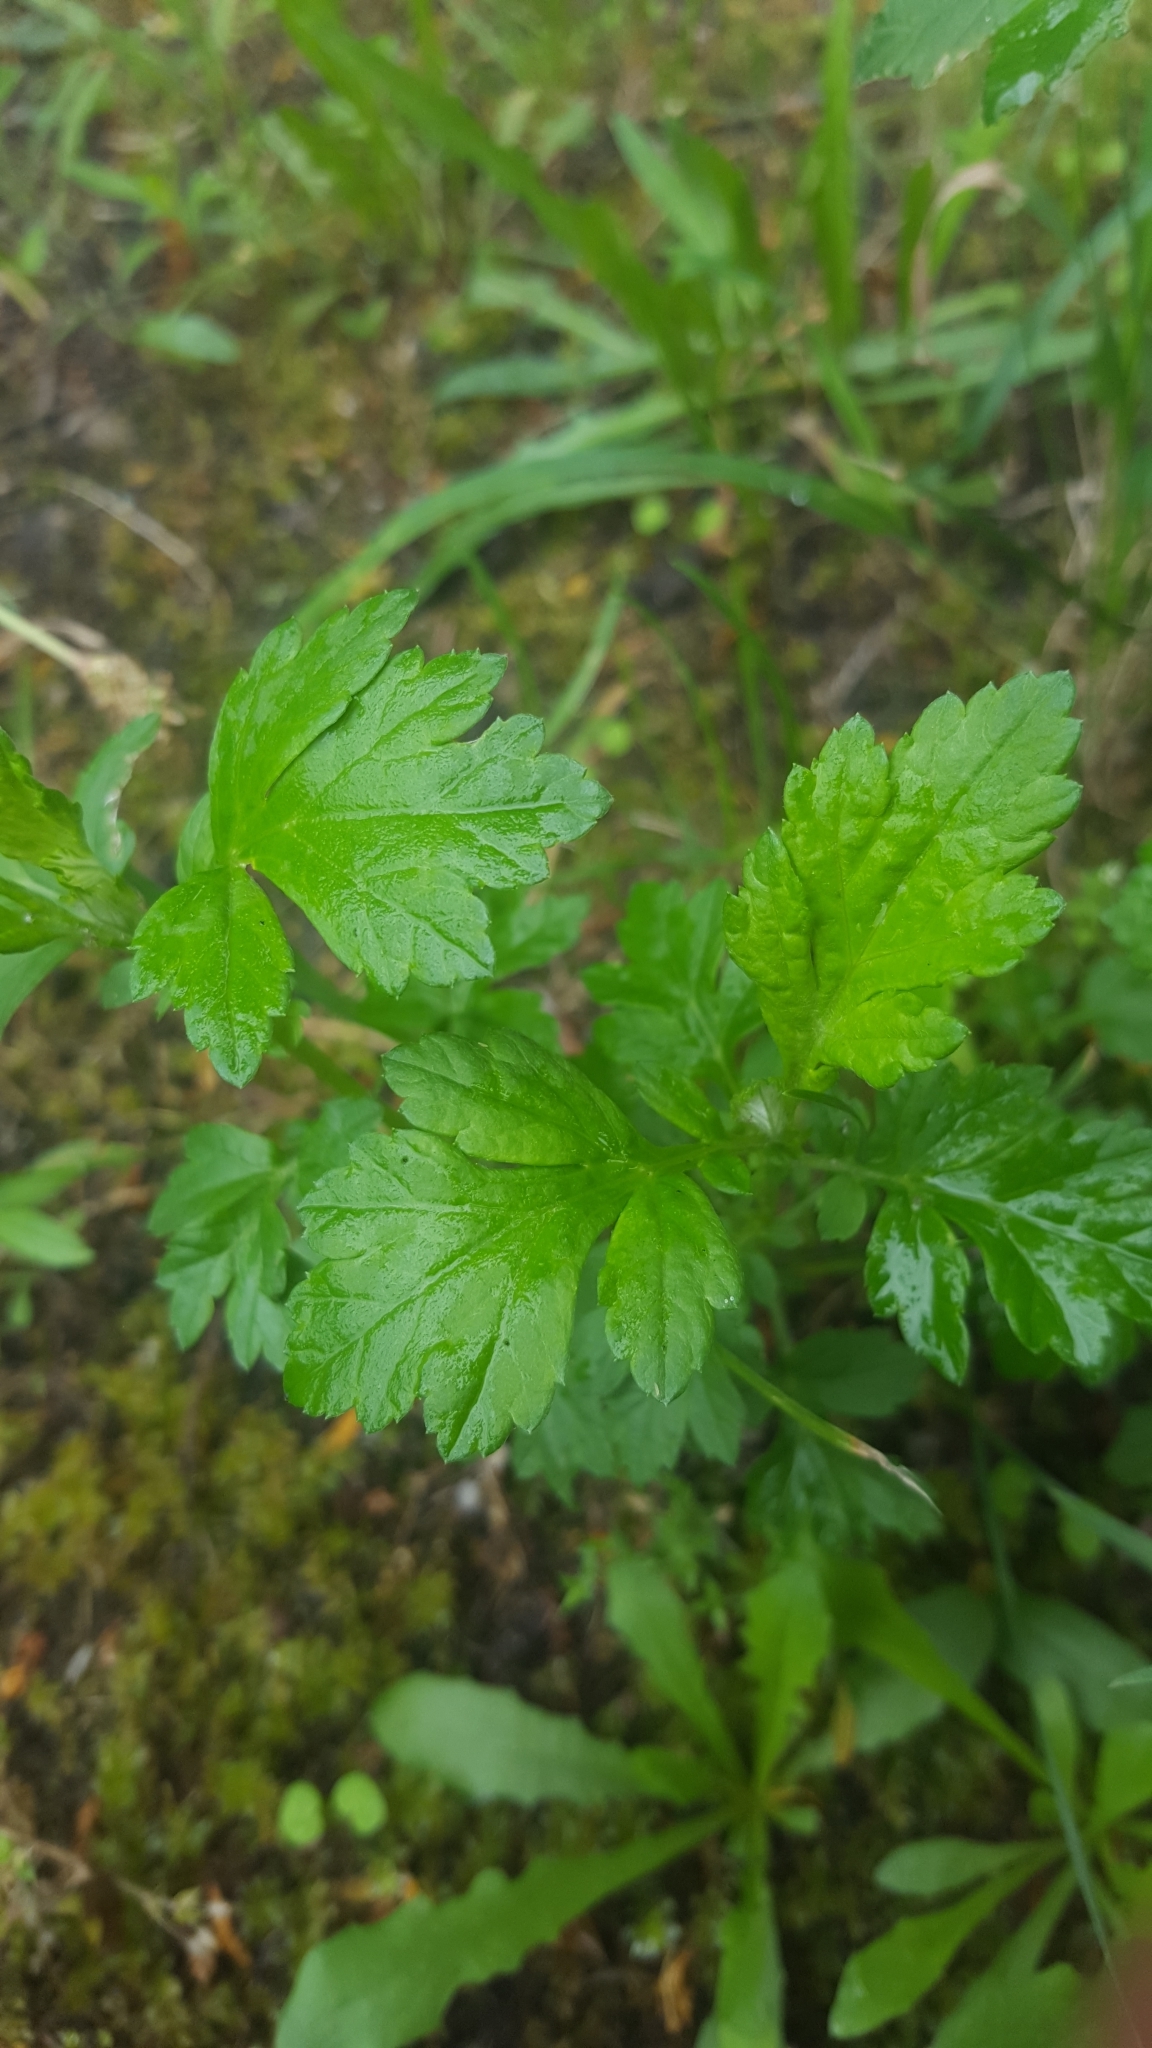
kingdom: Plantae
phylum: Tracheophyta
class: Magnoliopsida
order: Asterales
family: Asteraceae
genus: Artemisia
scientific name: Artemisia vulgaris
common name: Mugwort
